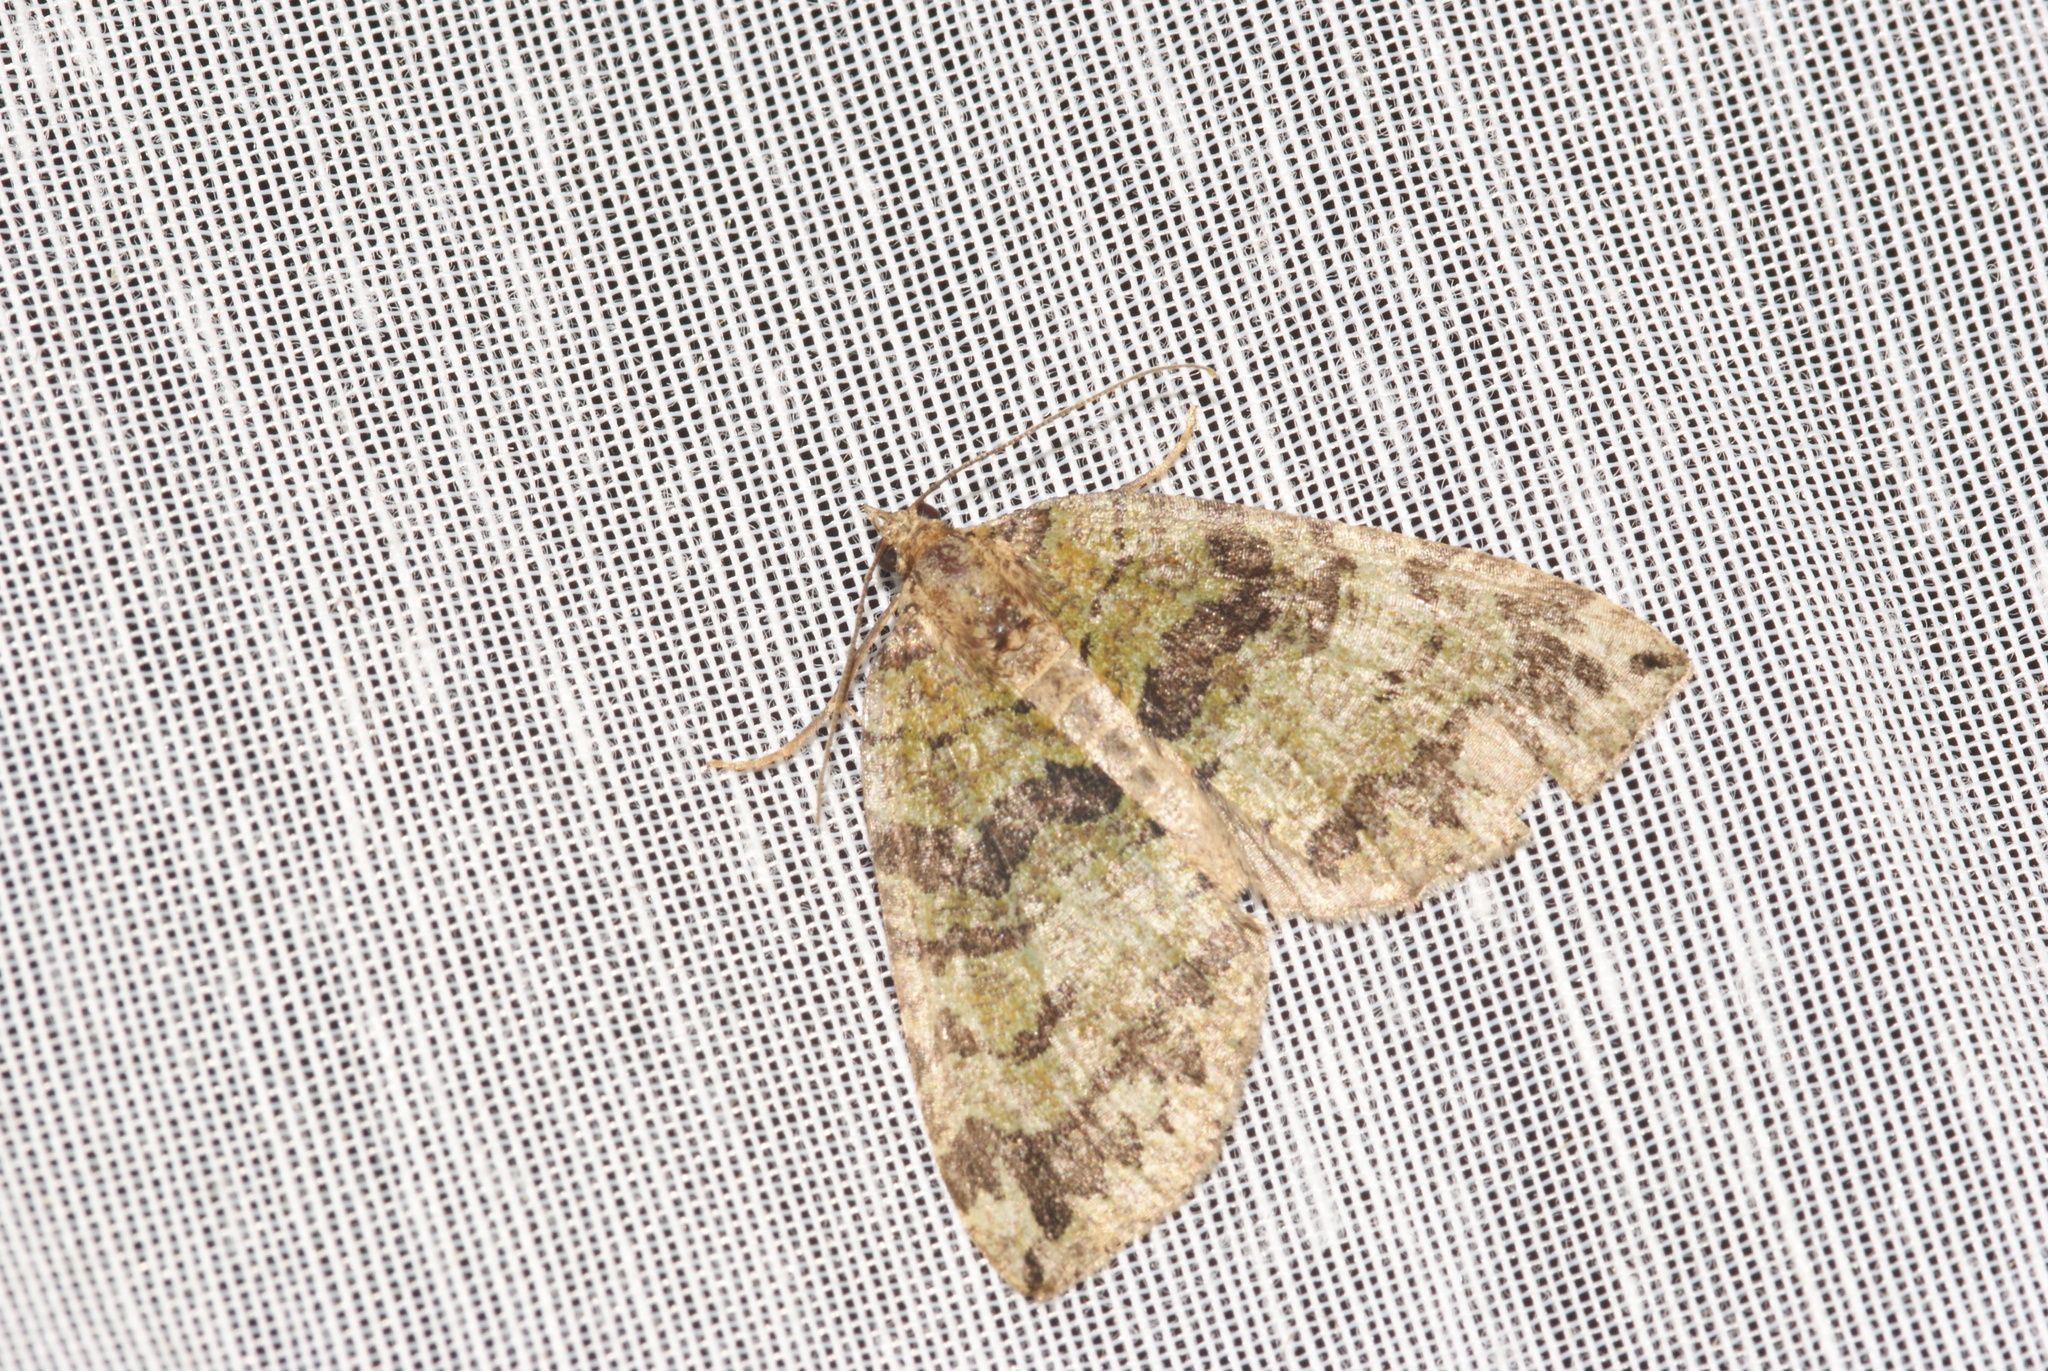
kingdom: Animalia
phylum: Arthropoda
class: Insecta
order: Lepidoptera
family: Geometridae
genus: Hydriomena
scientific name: Hydriomena furcata
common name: July highflyer
